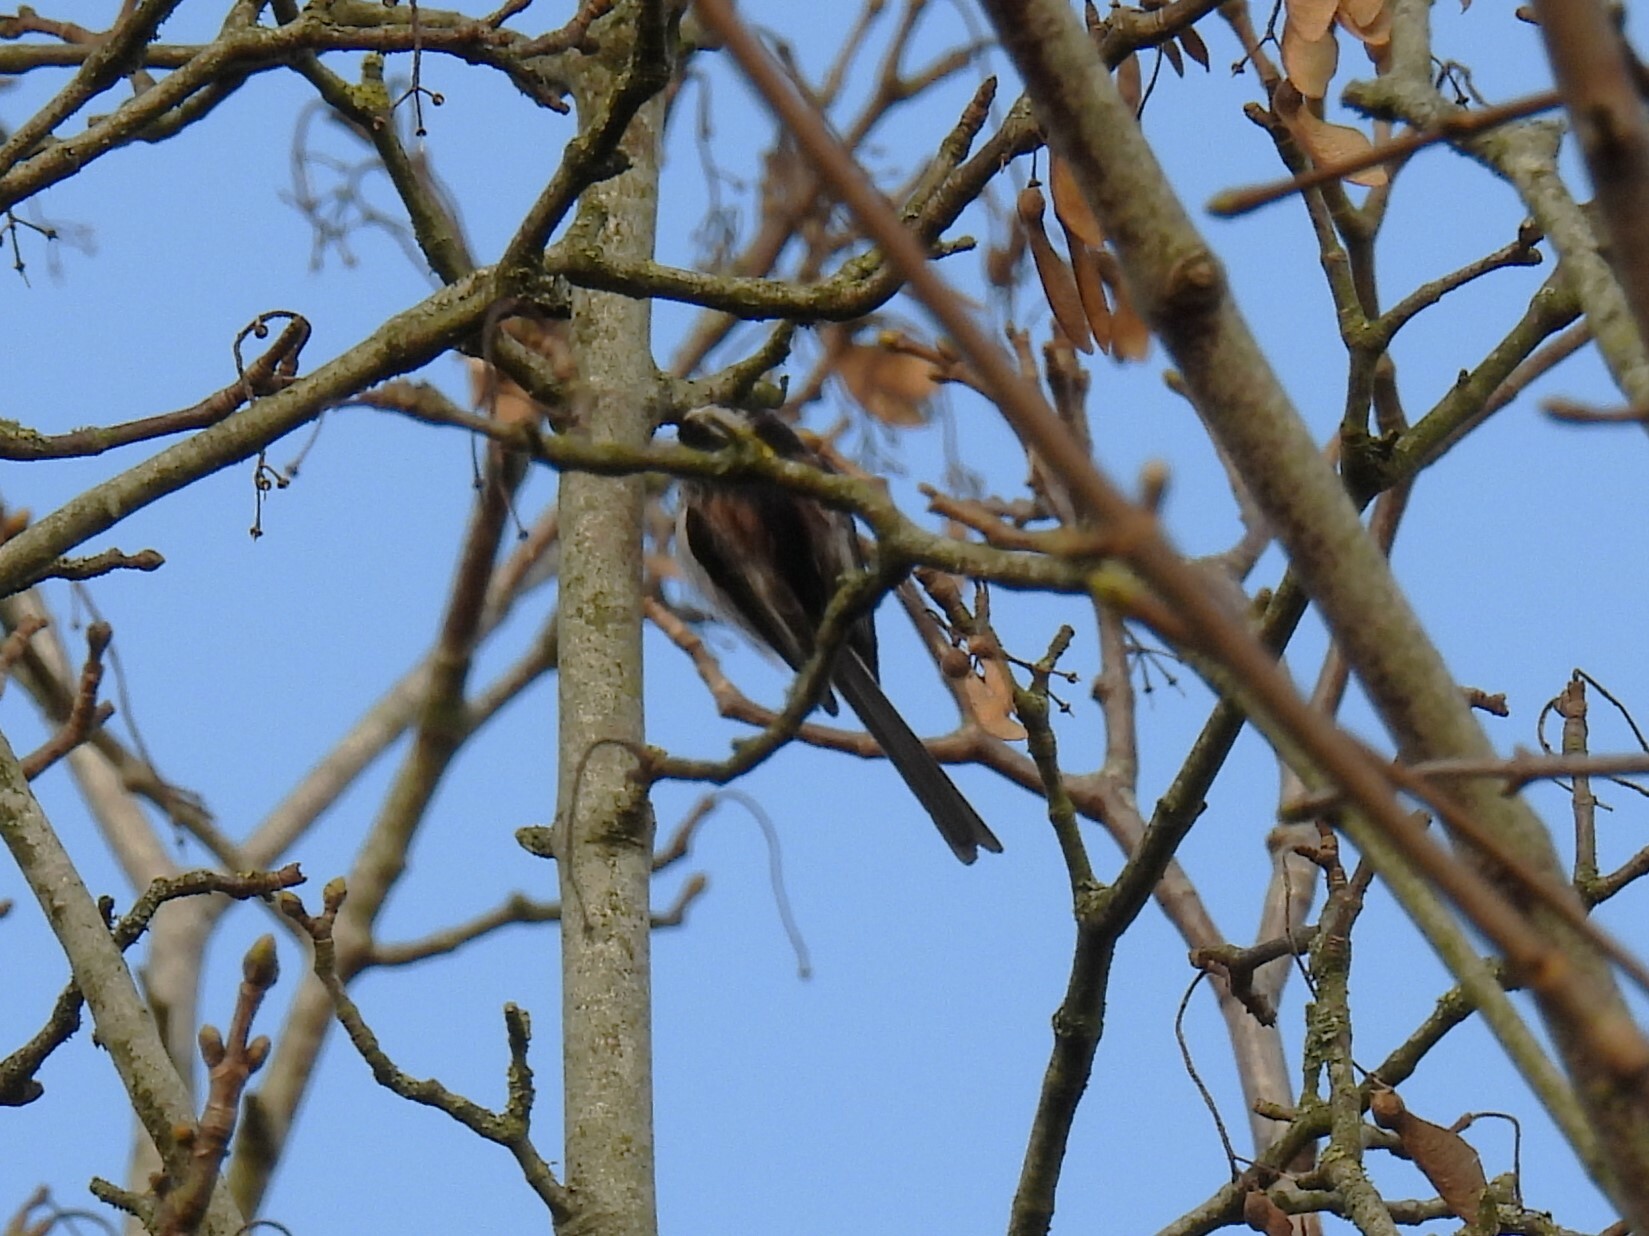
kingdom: Animalia
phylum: Chordata
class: Aves
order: Passeriformes
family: Aegithalidae
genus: Aegithalos
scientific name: Aegithalos caudatus
